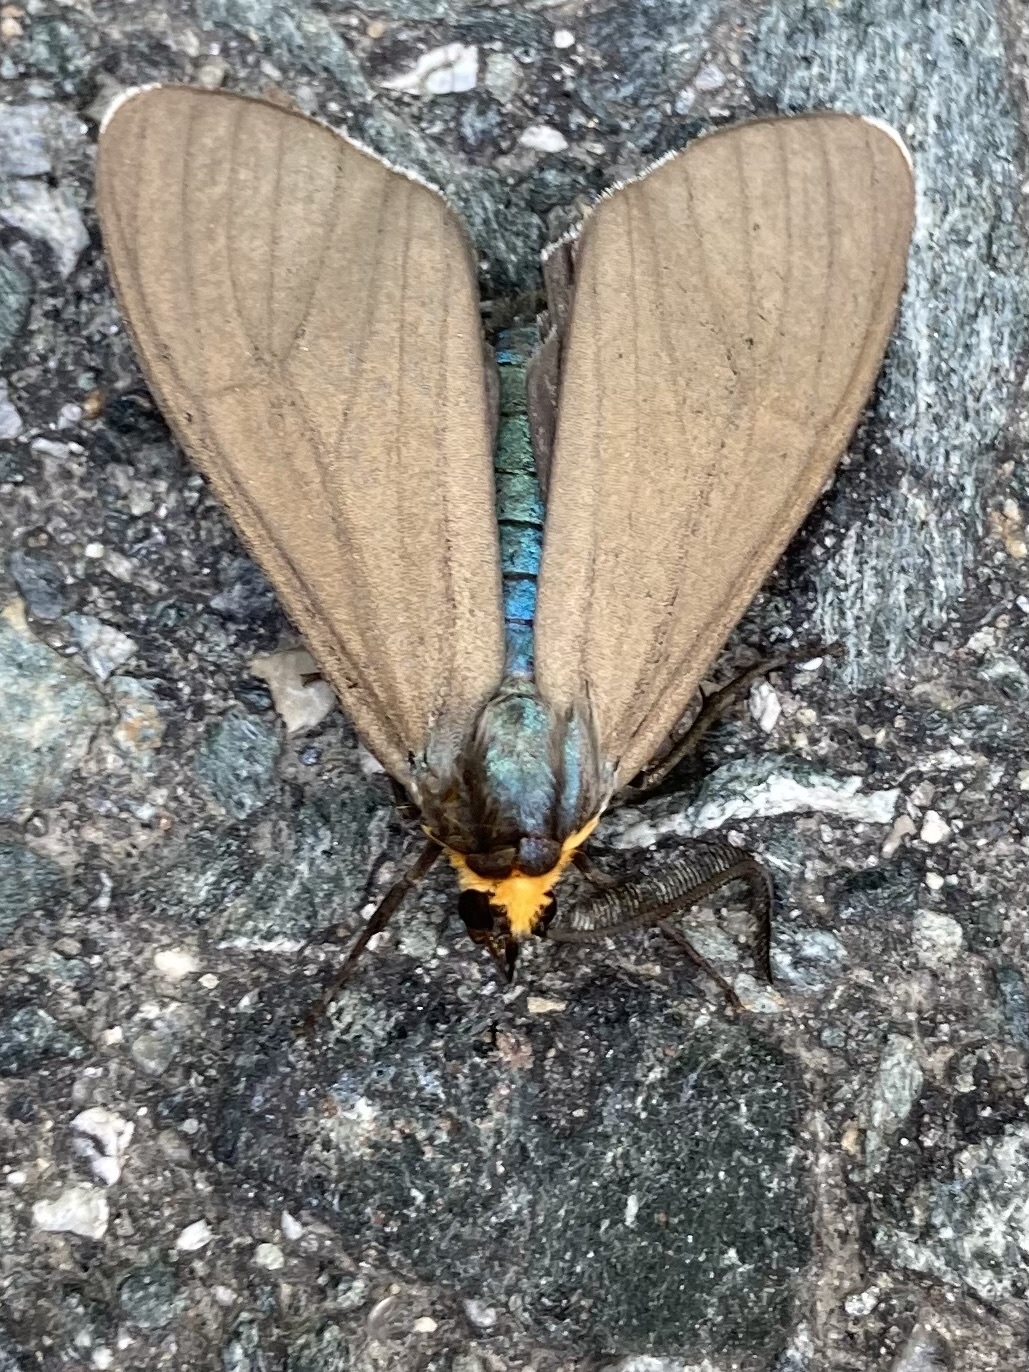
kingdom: Animalia
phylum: Arthropoda
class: Insecta
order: Lepidoptera
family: Erebidae
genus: Ctenucha
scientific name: Ctenucha virginica
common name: Virginia ctenucha moth
